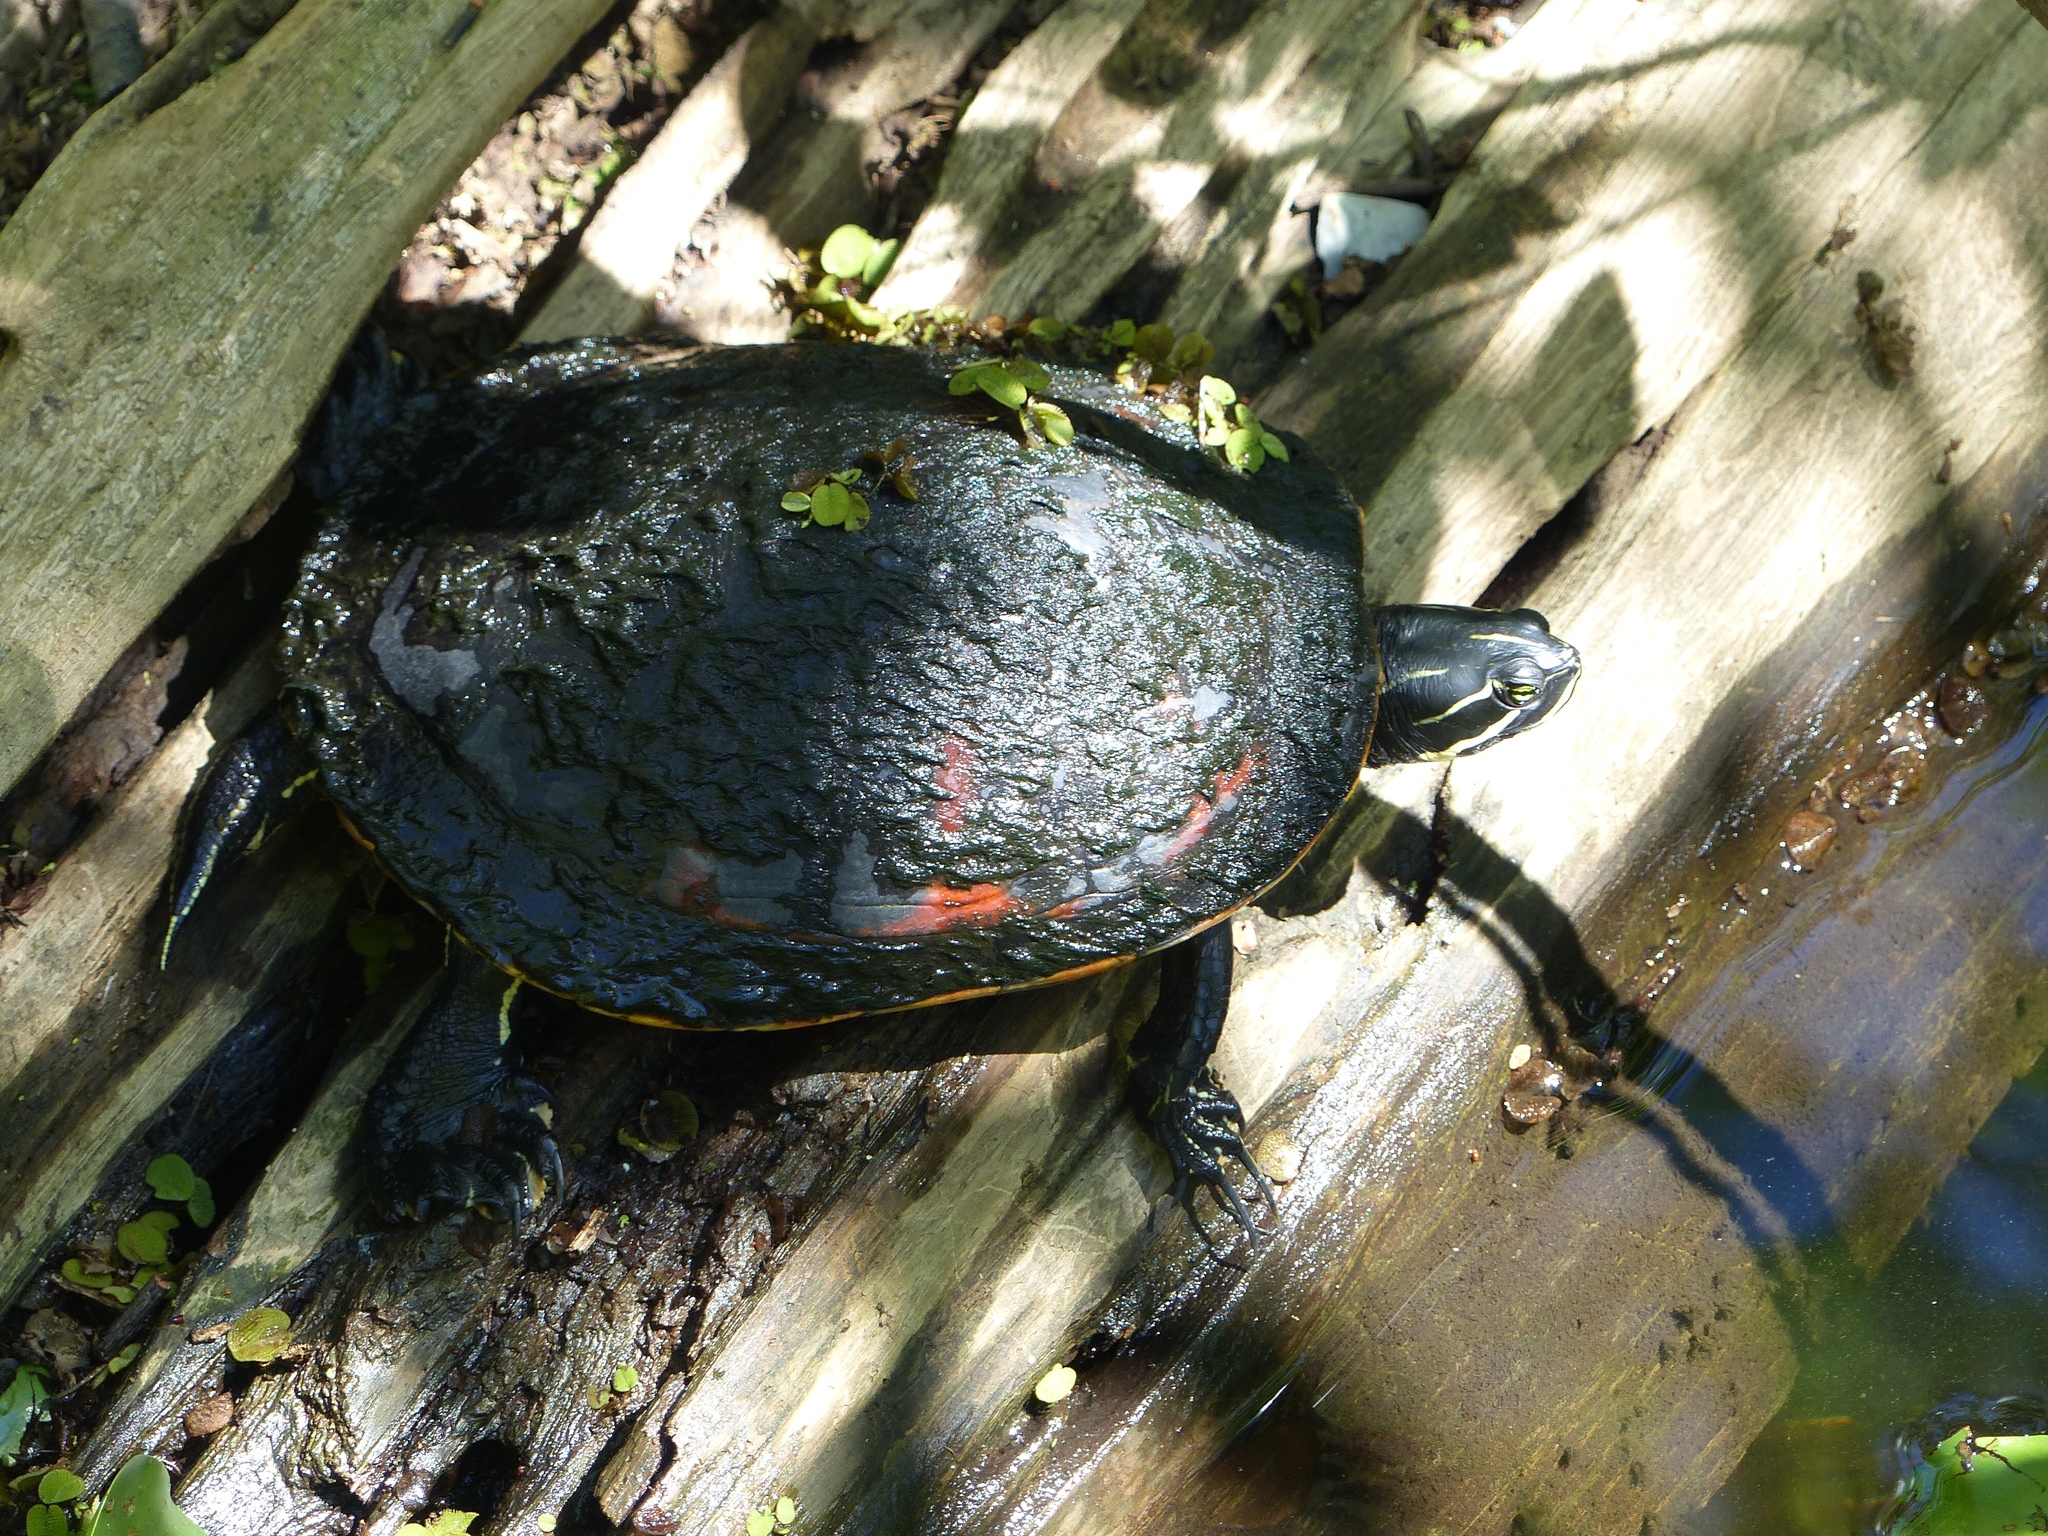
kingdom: Animalia
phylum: Chordata
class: Testudines
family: Emydidae
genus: Pseudemys
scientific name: Pseudemys nelsoni
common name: Florida red-bellied turtle
